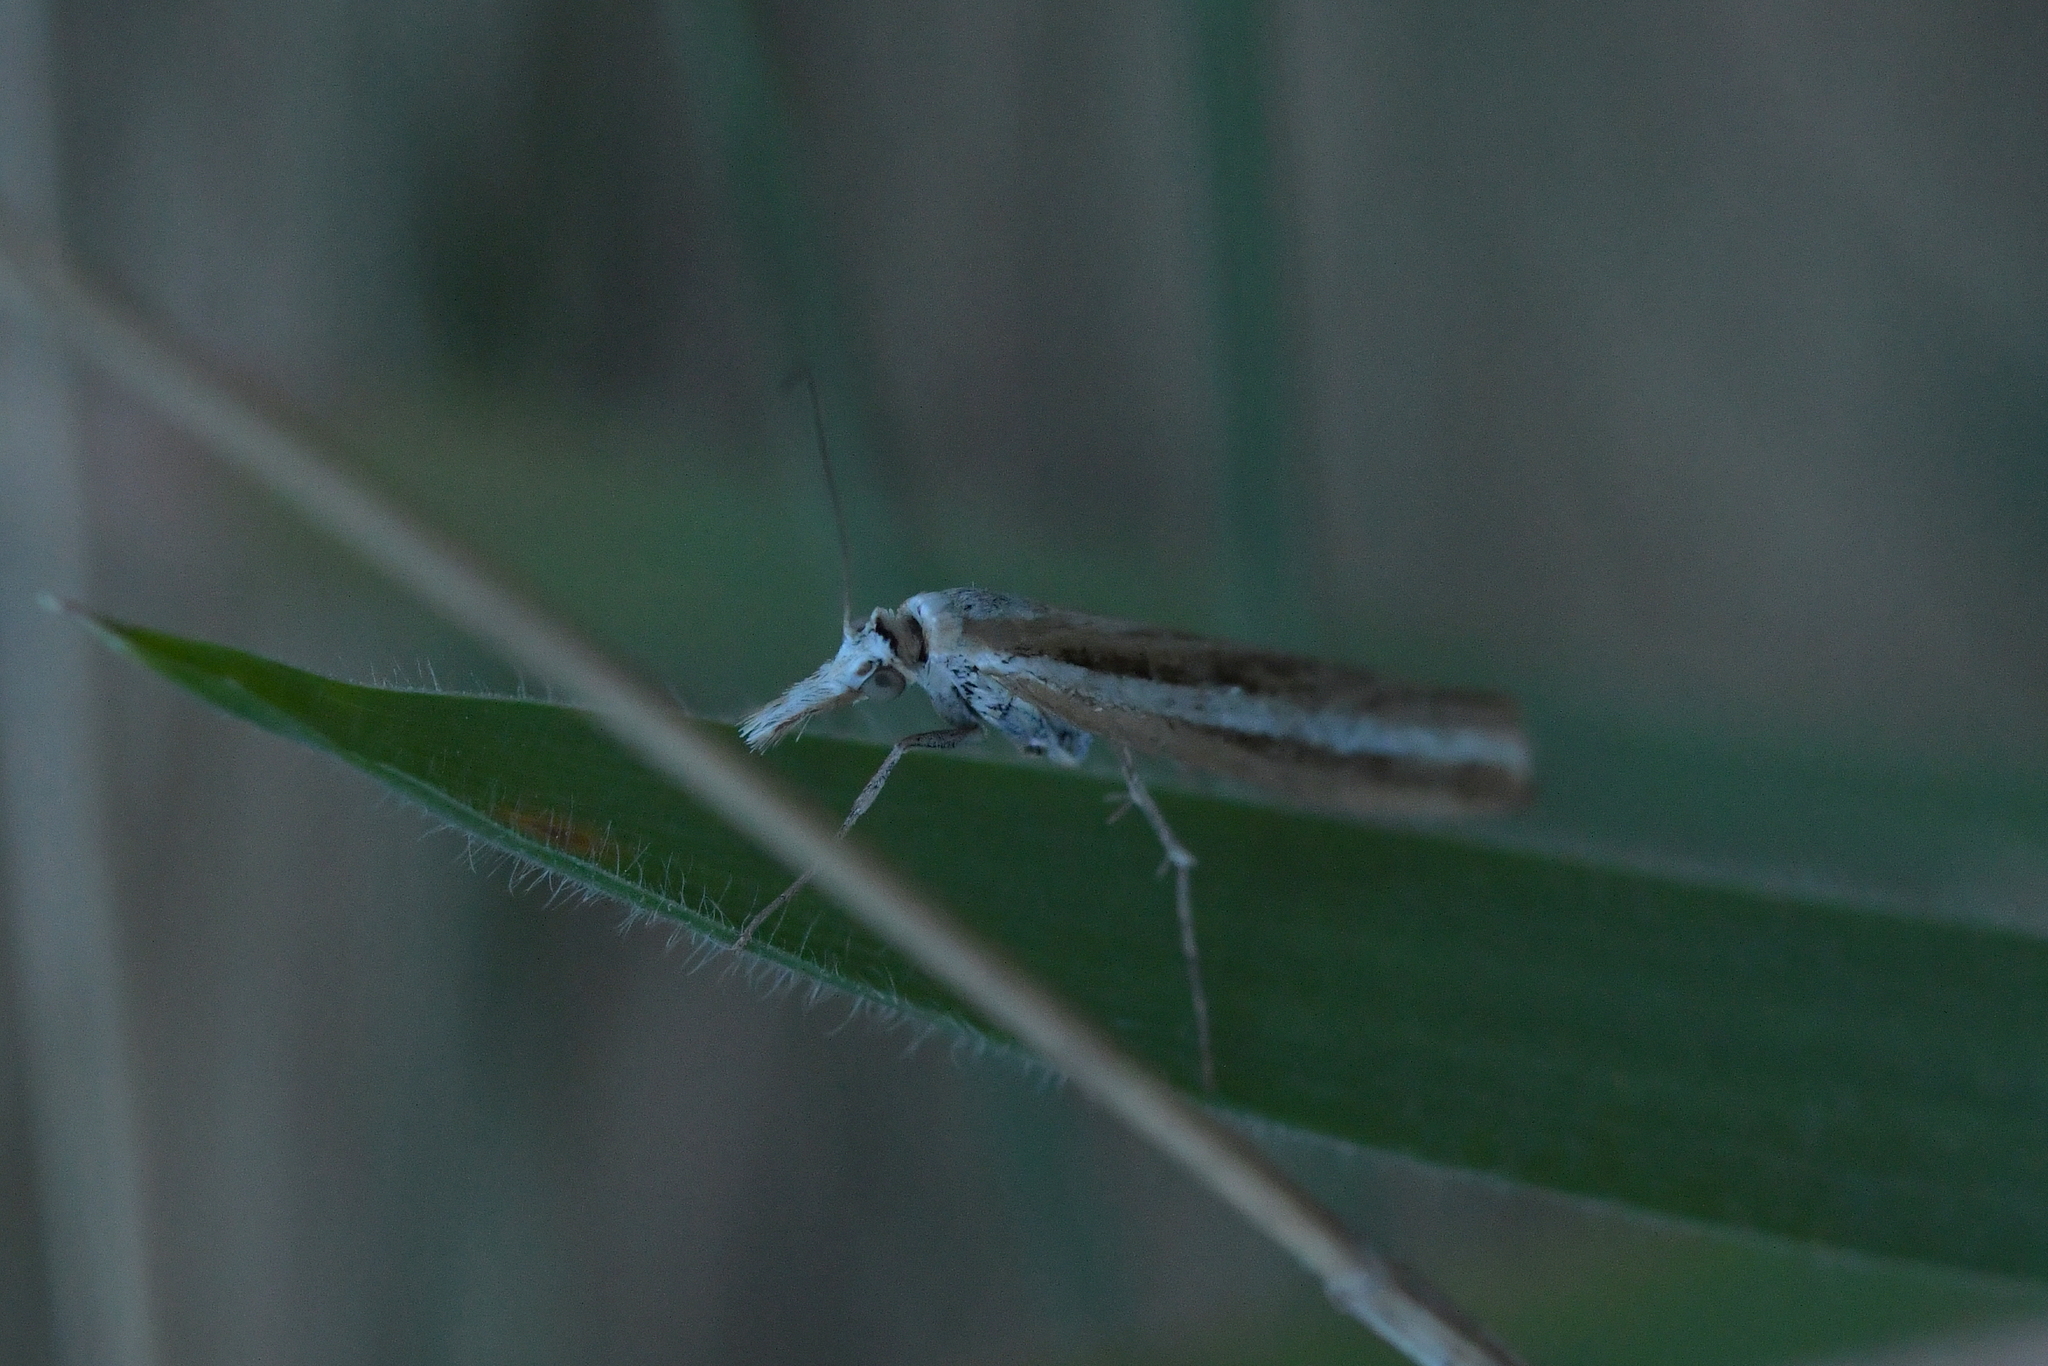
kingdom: Animalia
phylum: Arthropoda
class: Insecta
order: Lepidoptera
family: Crambidae
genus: Orocrambus
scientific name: Orocrambus vittellus
